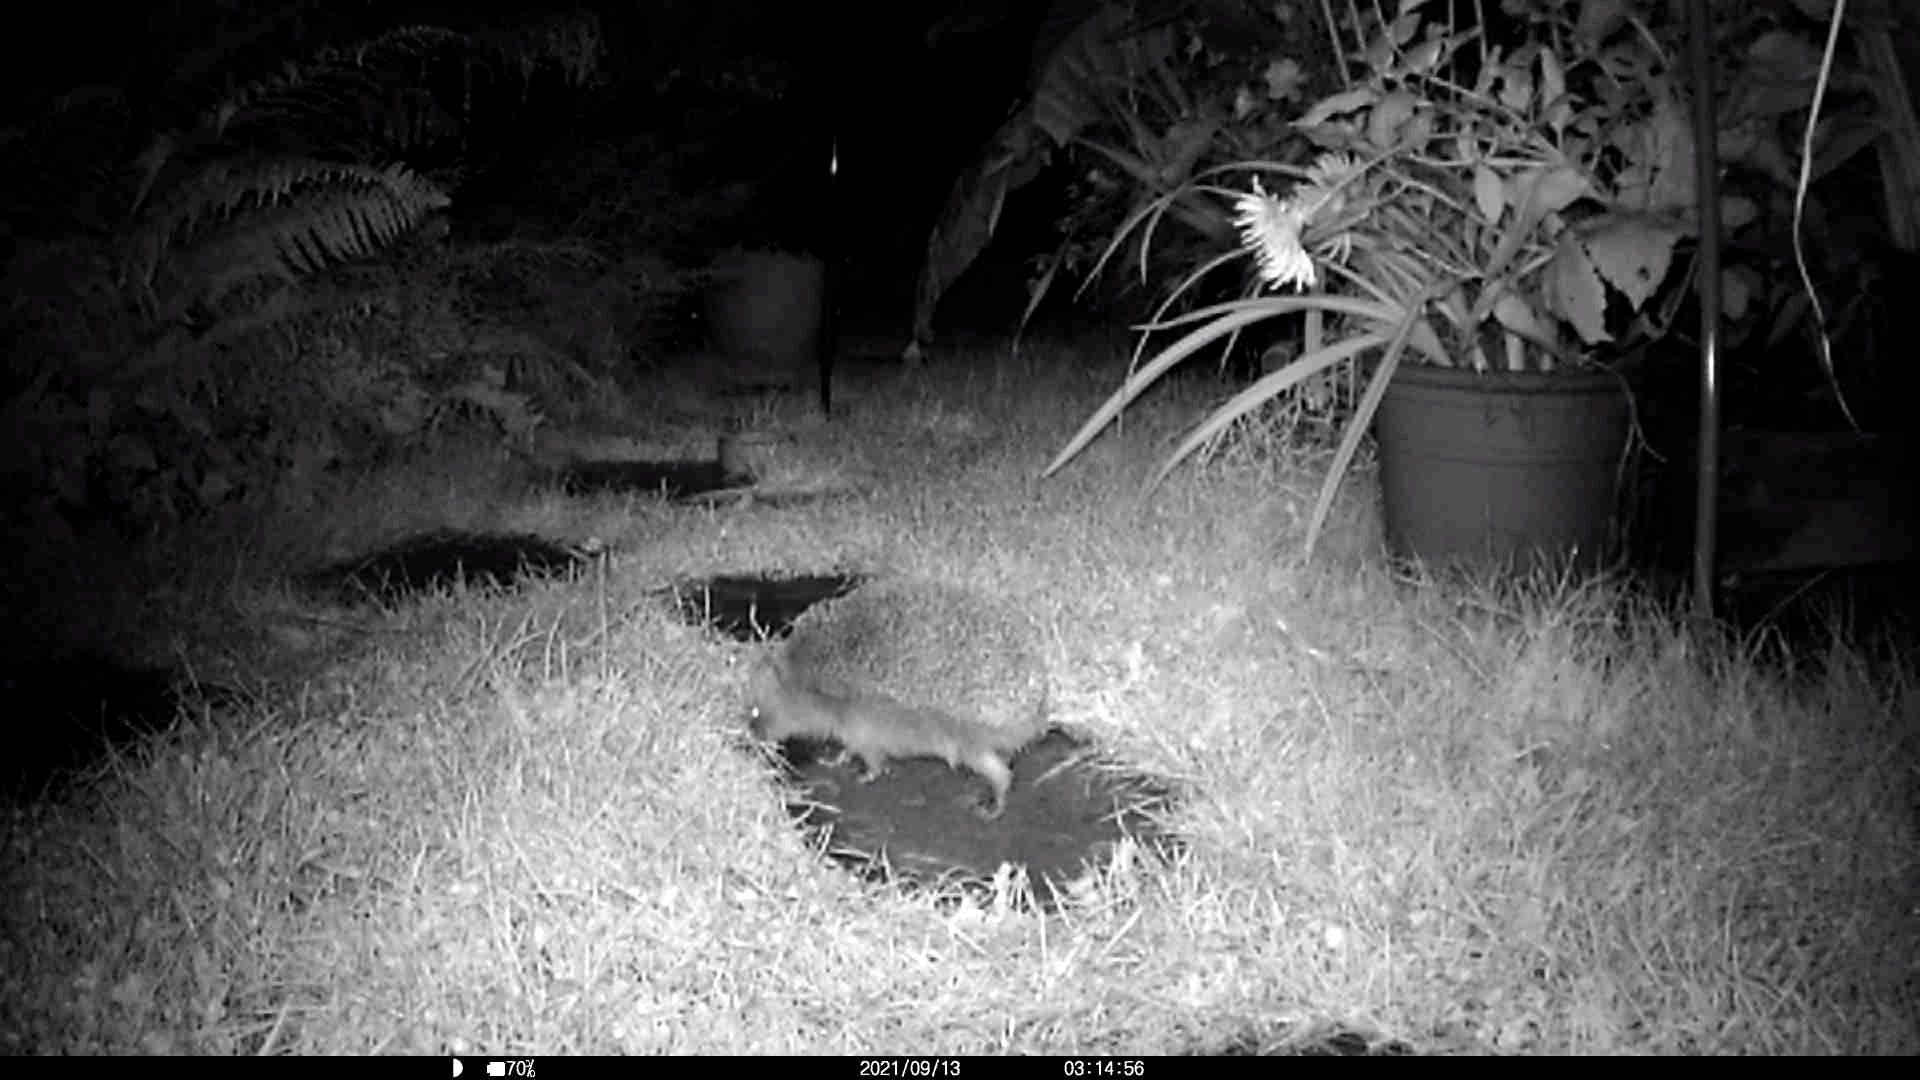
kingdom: Animalia
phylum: Chordata
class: Mammalia
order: Erinaceomorpha
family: Erinaceidae
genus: Erinaceus
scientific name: Erinaceus europaeus
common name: West european hedgehog
